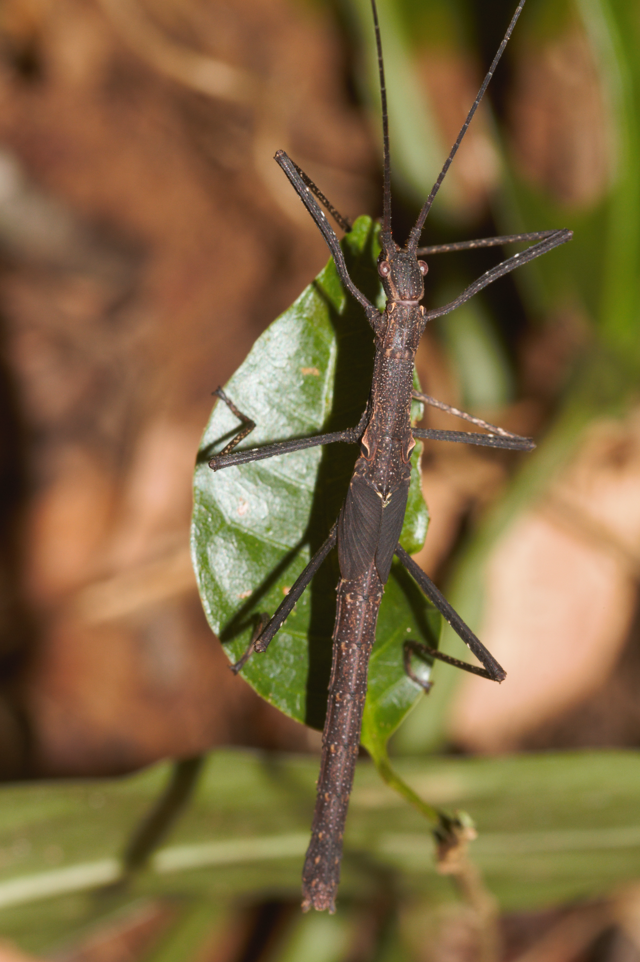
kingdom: Animalia
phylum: Arthropoda
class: Insecta
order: Phasmida
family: Pseudophasmatidae
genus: Pseudophasma
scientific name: Pseudophasma
